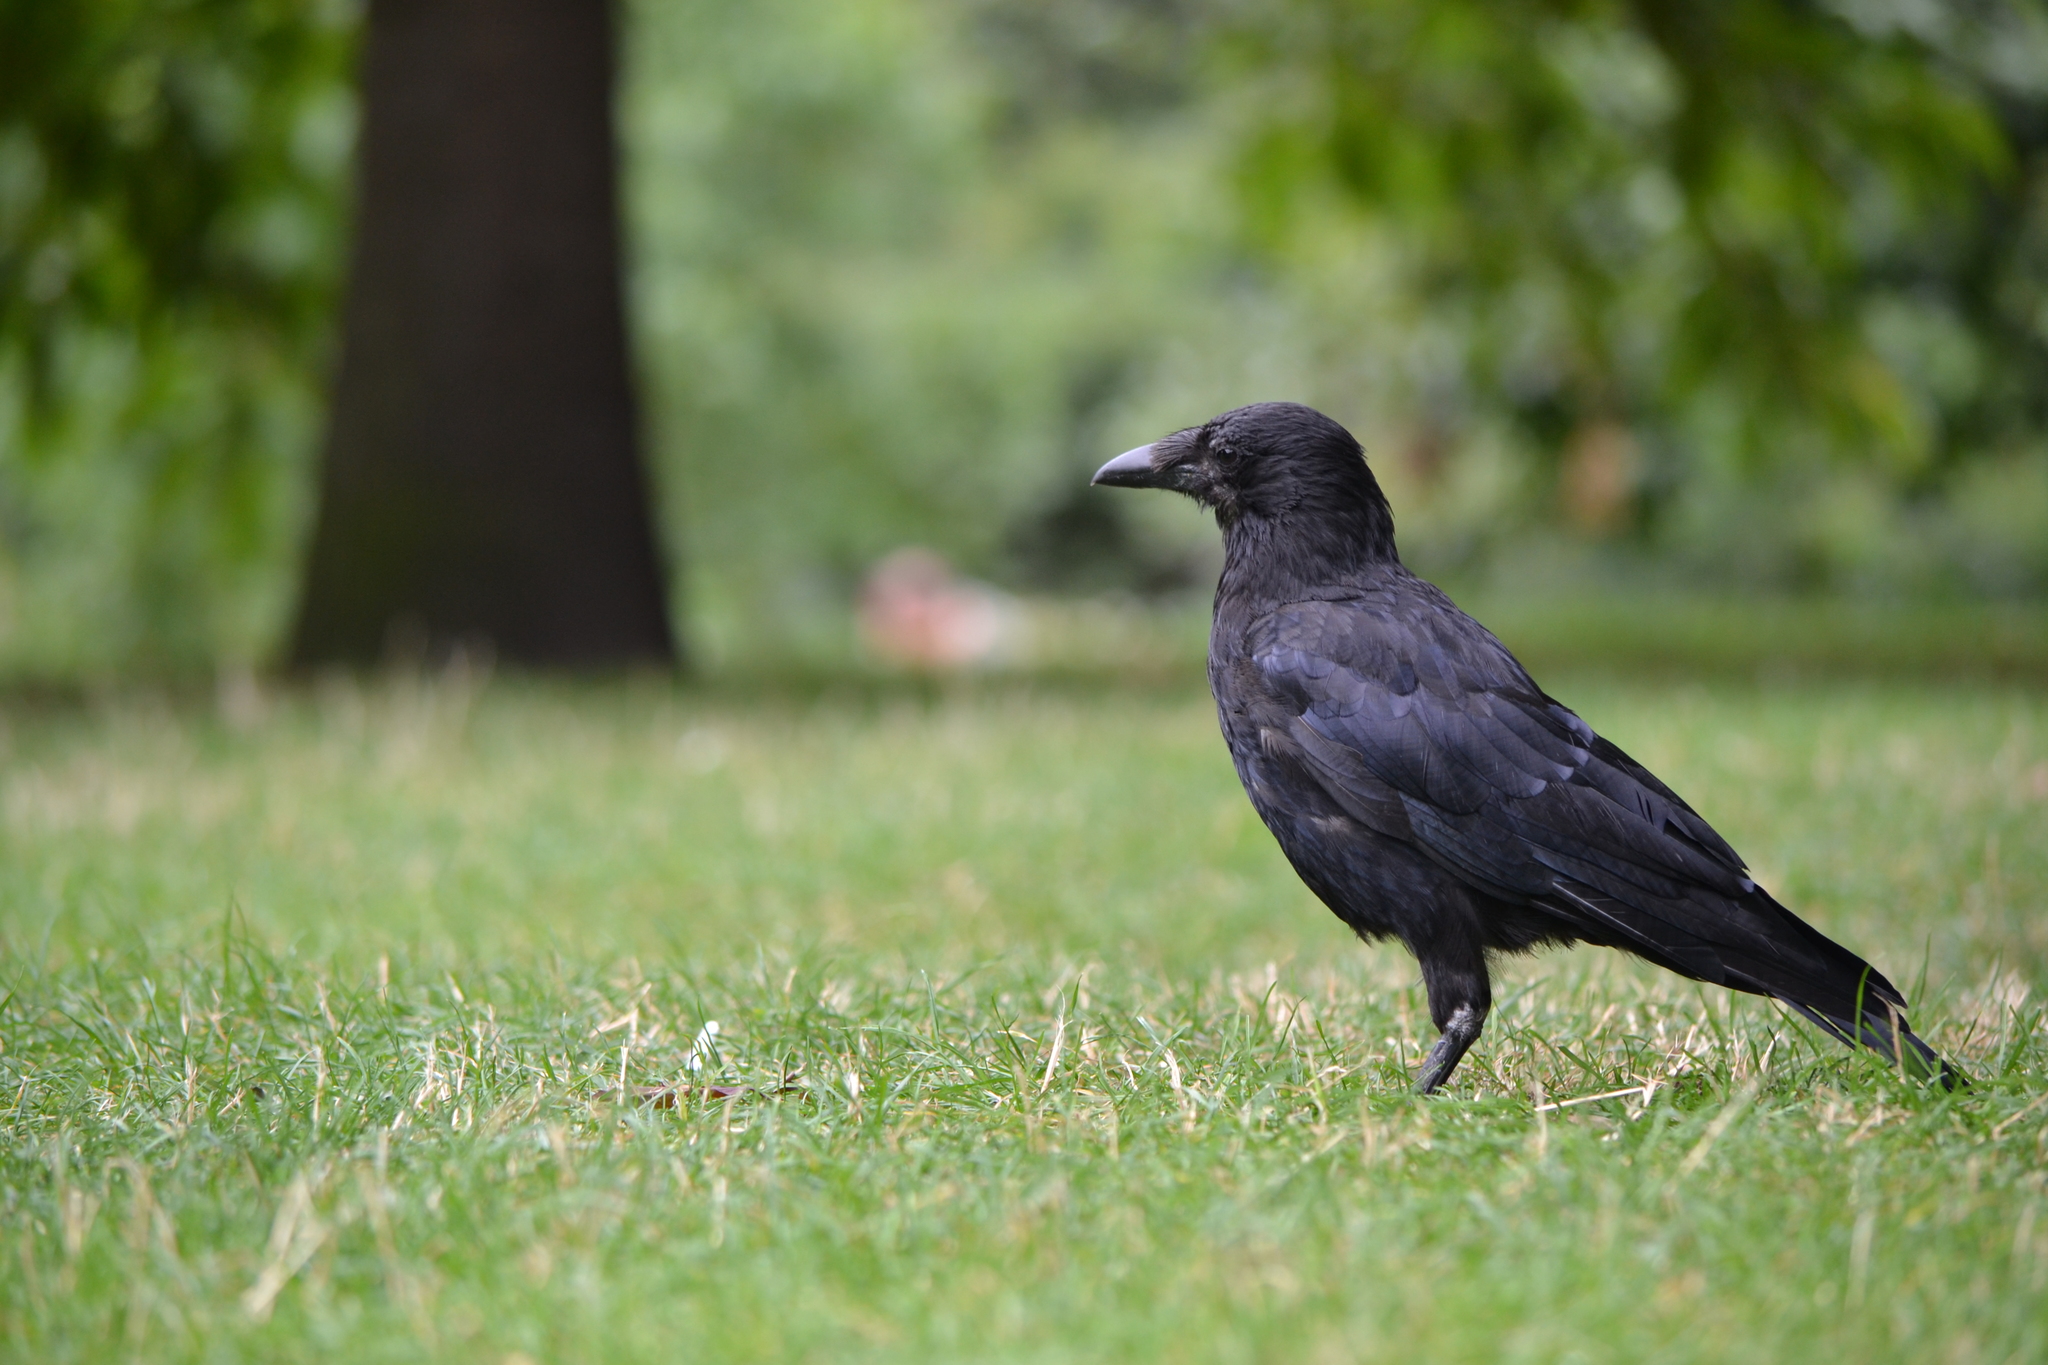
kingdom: Animalia
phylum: Chordata
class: Aves
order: Passeriformes
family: Corvidae
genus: Corvus
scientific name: Corvus corone
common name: Carrion crow
